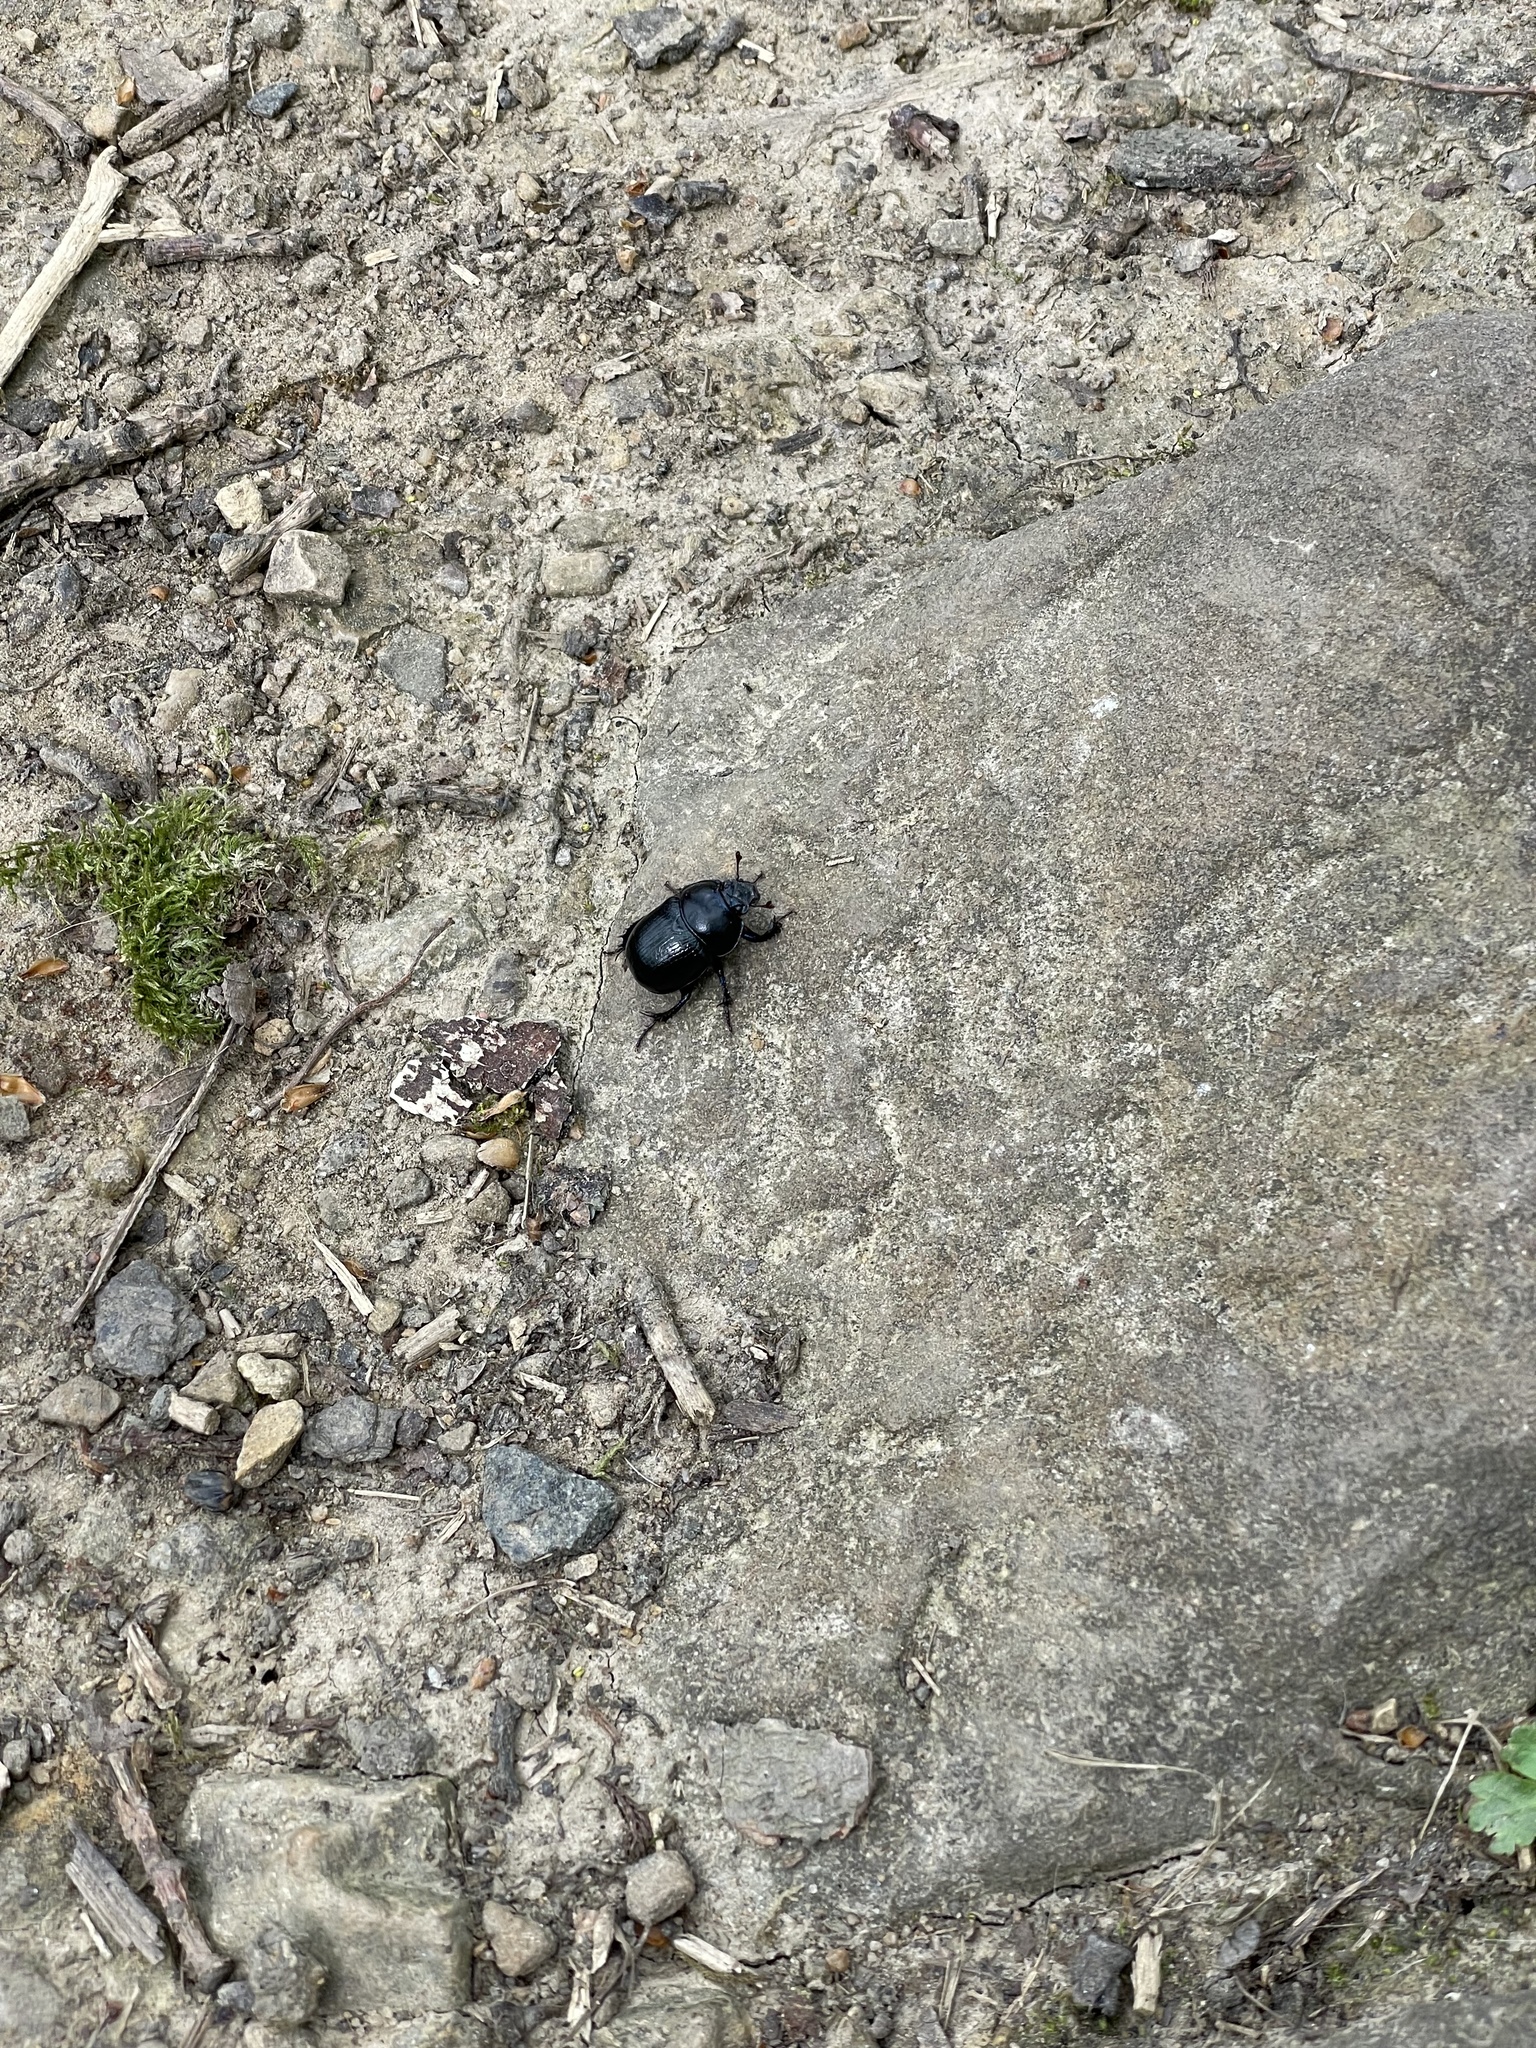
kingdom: Animalia
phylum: Arthropoda
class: Insecta
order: Coleoptera
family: Geotrupidae
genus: Anoplotrupes
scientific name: Anoplotrupes stercorosus
